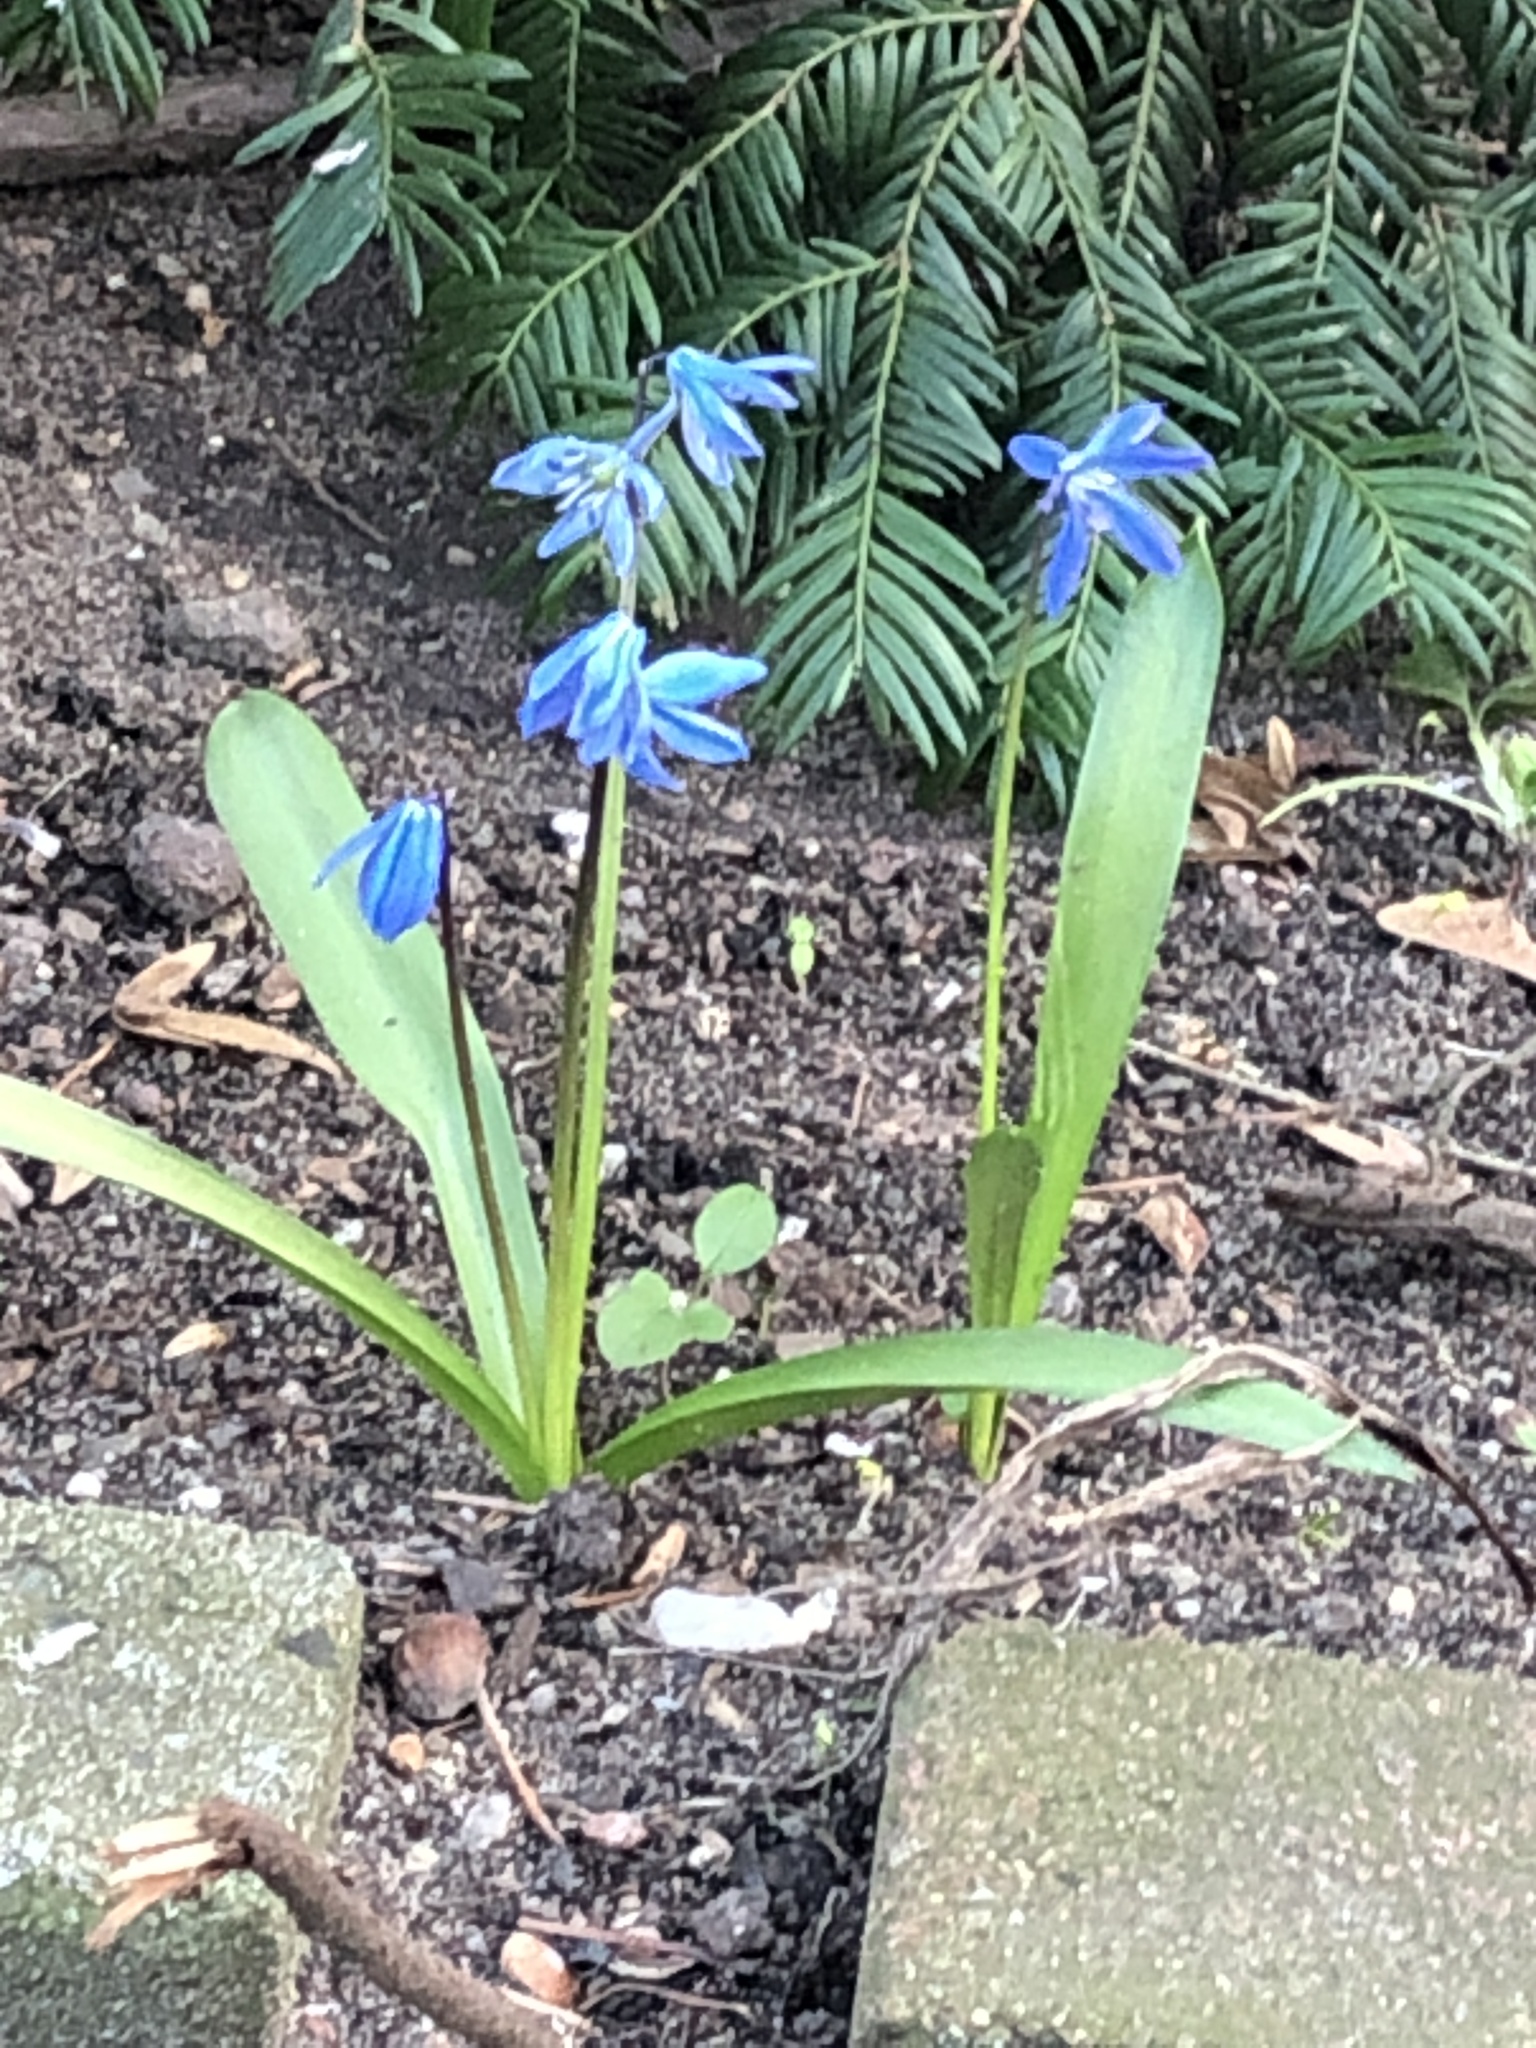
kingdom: Plantae
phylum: Tracheophyta
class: Liliopsida
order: Asparagales
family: Asparagaceae
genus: Scilla
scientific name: Scilla siberica
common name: Siberian squill
